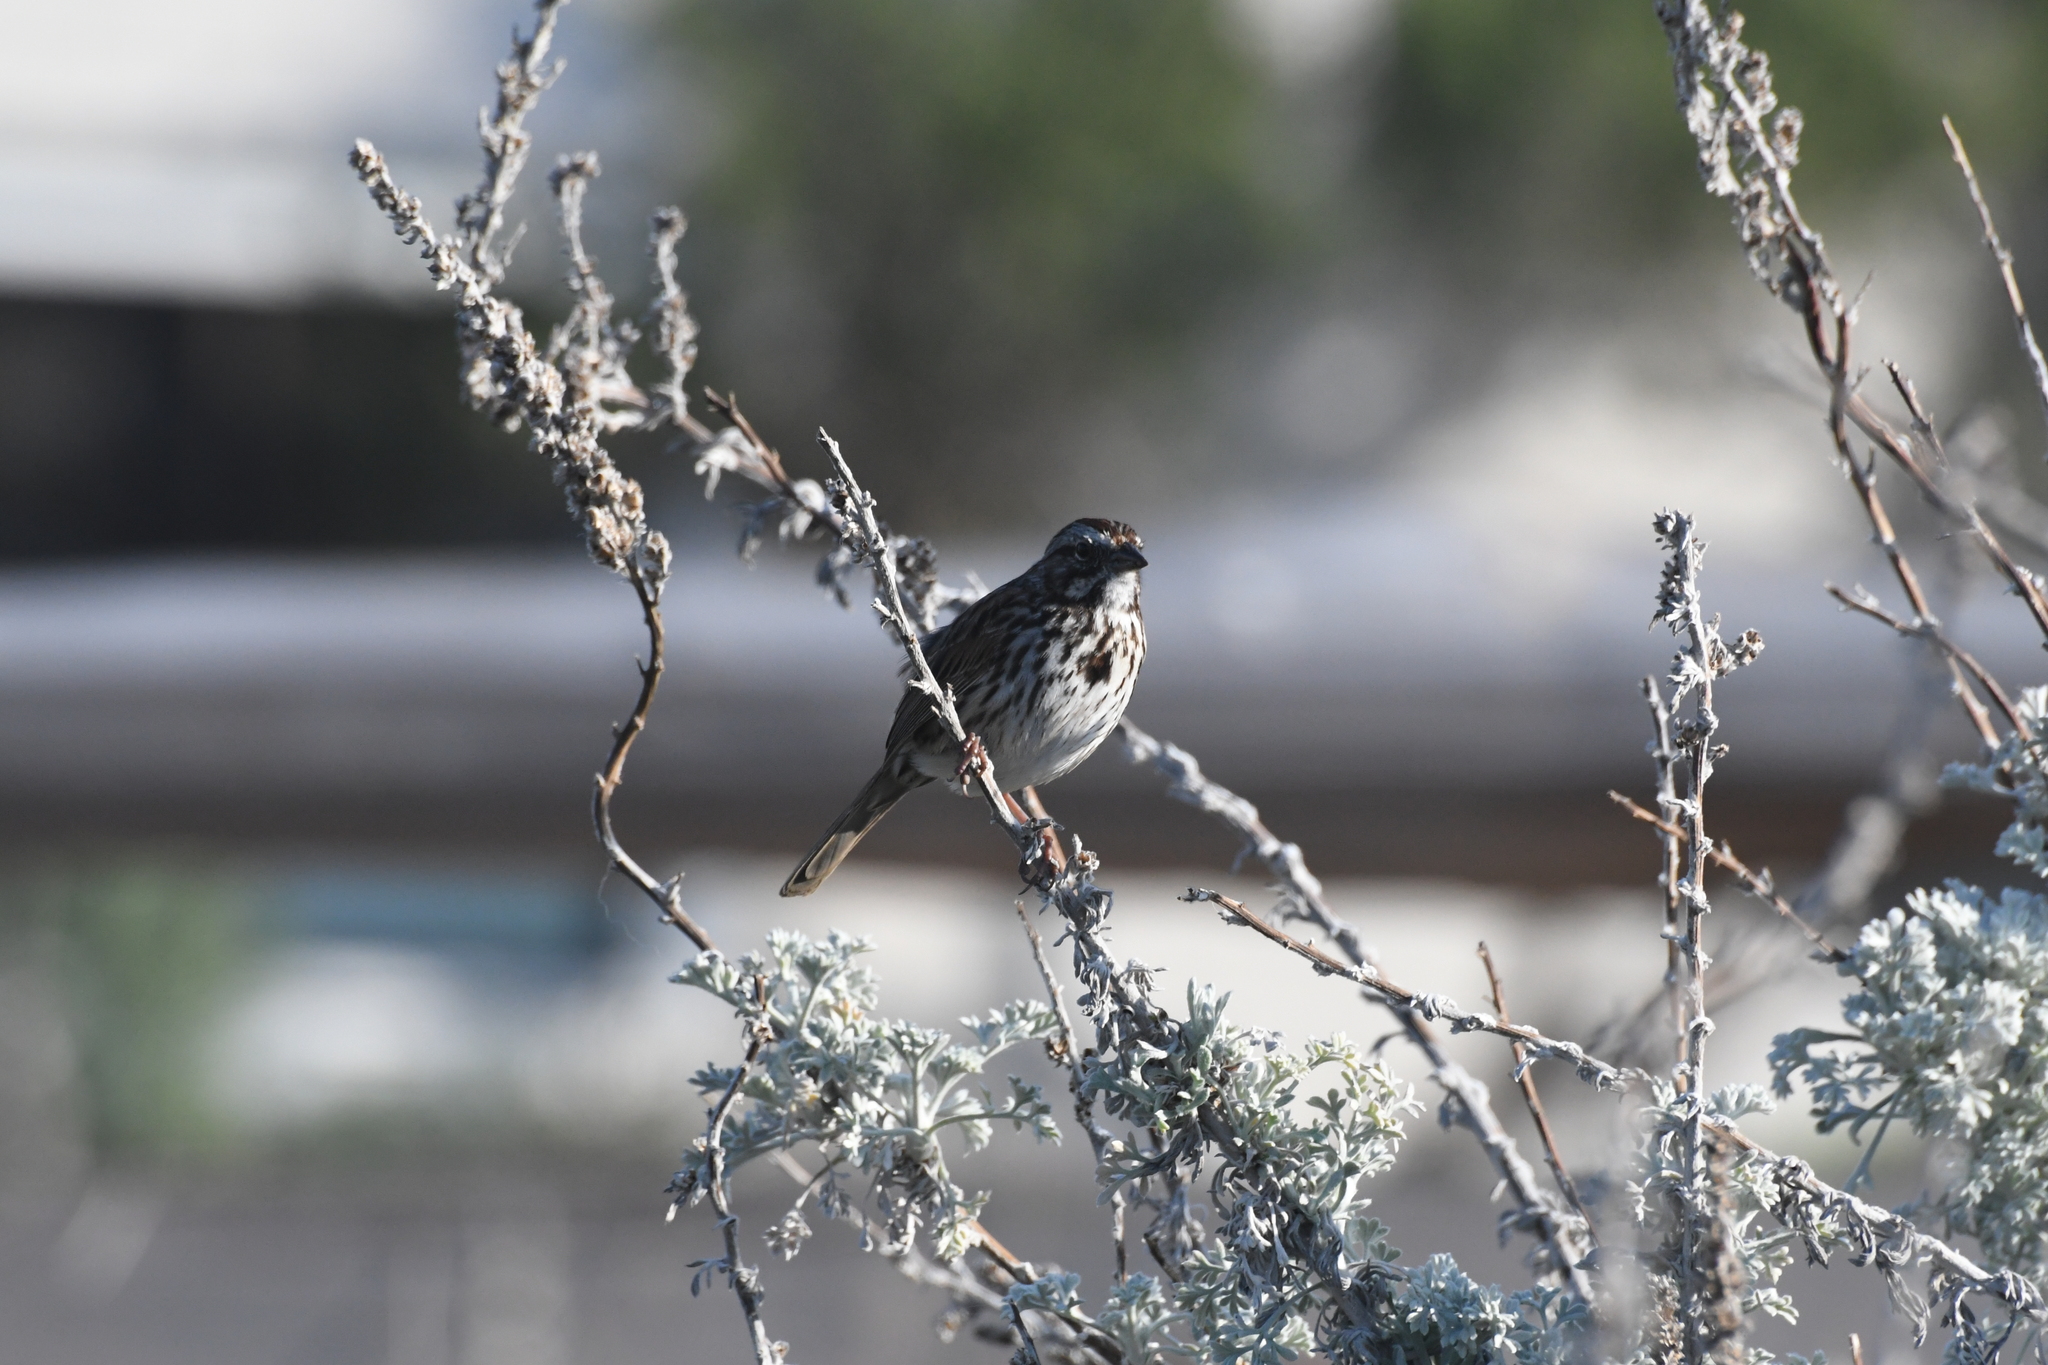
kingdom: Animalia
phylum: Chordata
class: Aves
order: Passeriformes
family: Passerellidae
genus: Melospiza
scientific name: Melospiza melodia
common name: Song sparrow
